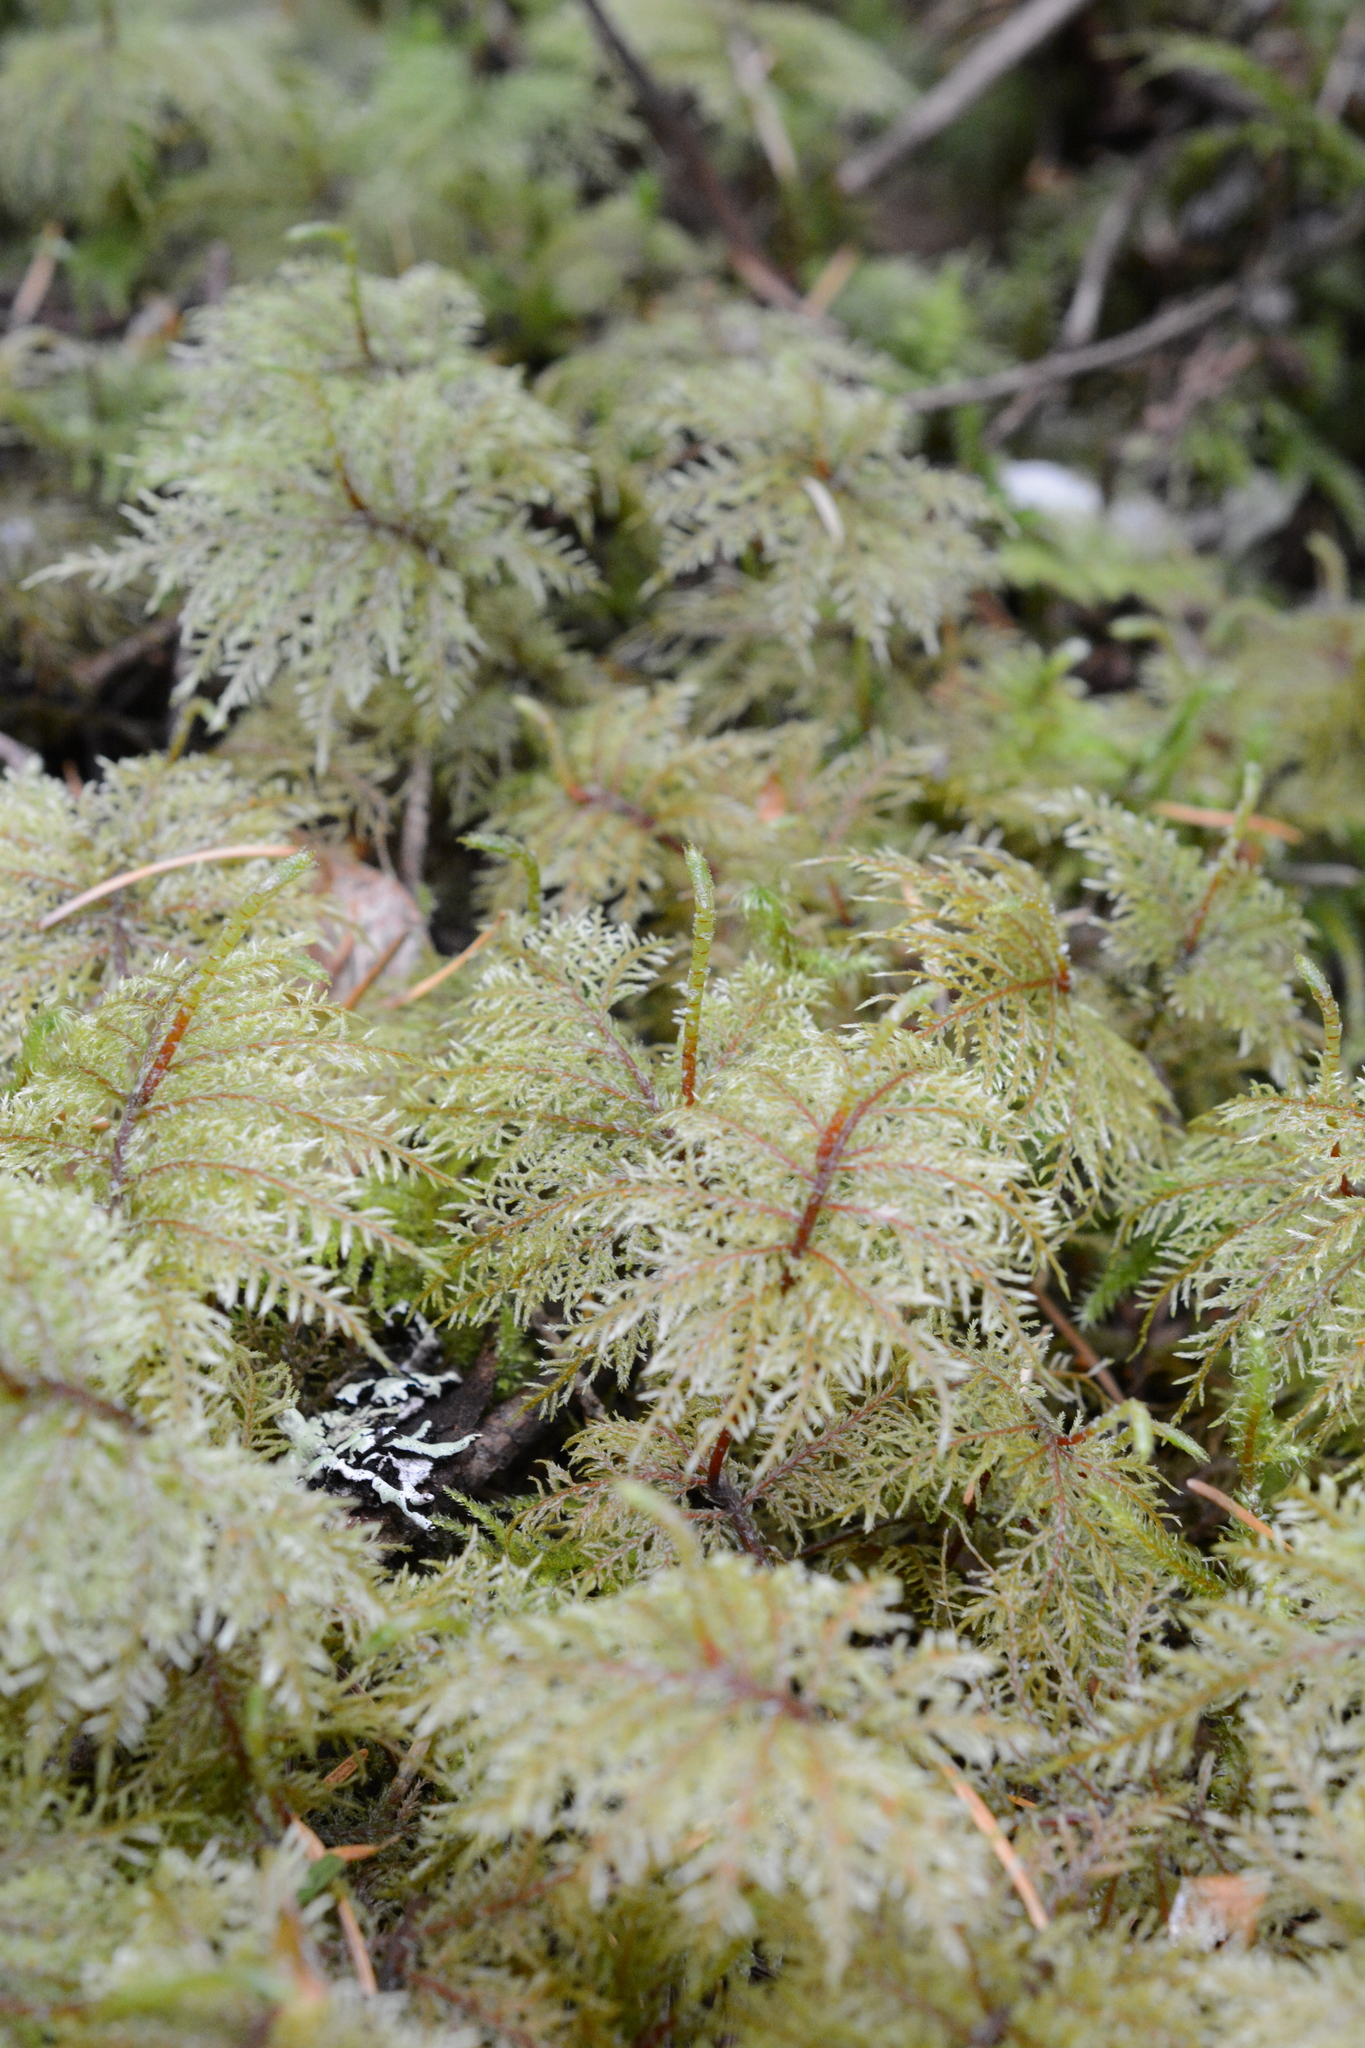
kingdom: Plantae
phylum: Bryophyta
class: Bryopsida
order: Hypnales
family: Hylocomiaceae
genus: Hylocomium
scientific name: Hylocomium splendens
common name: Stairstep moss
